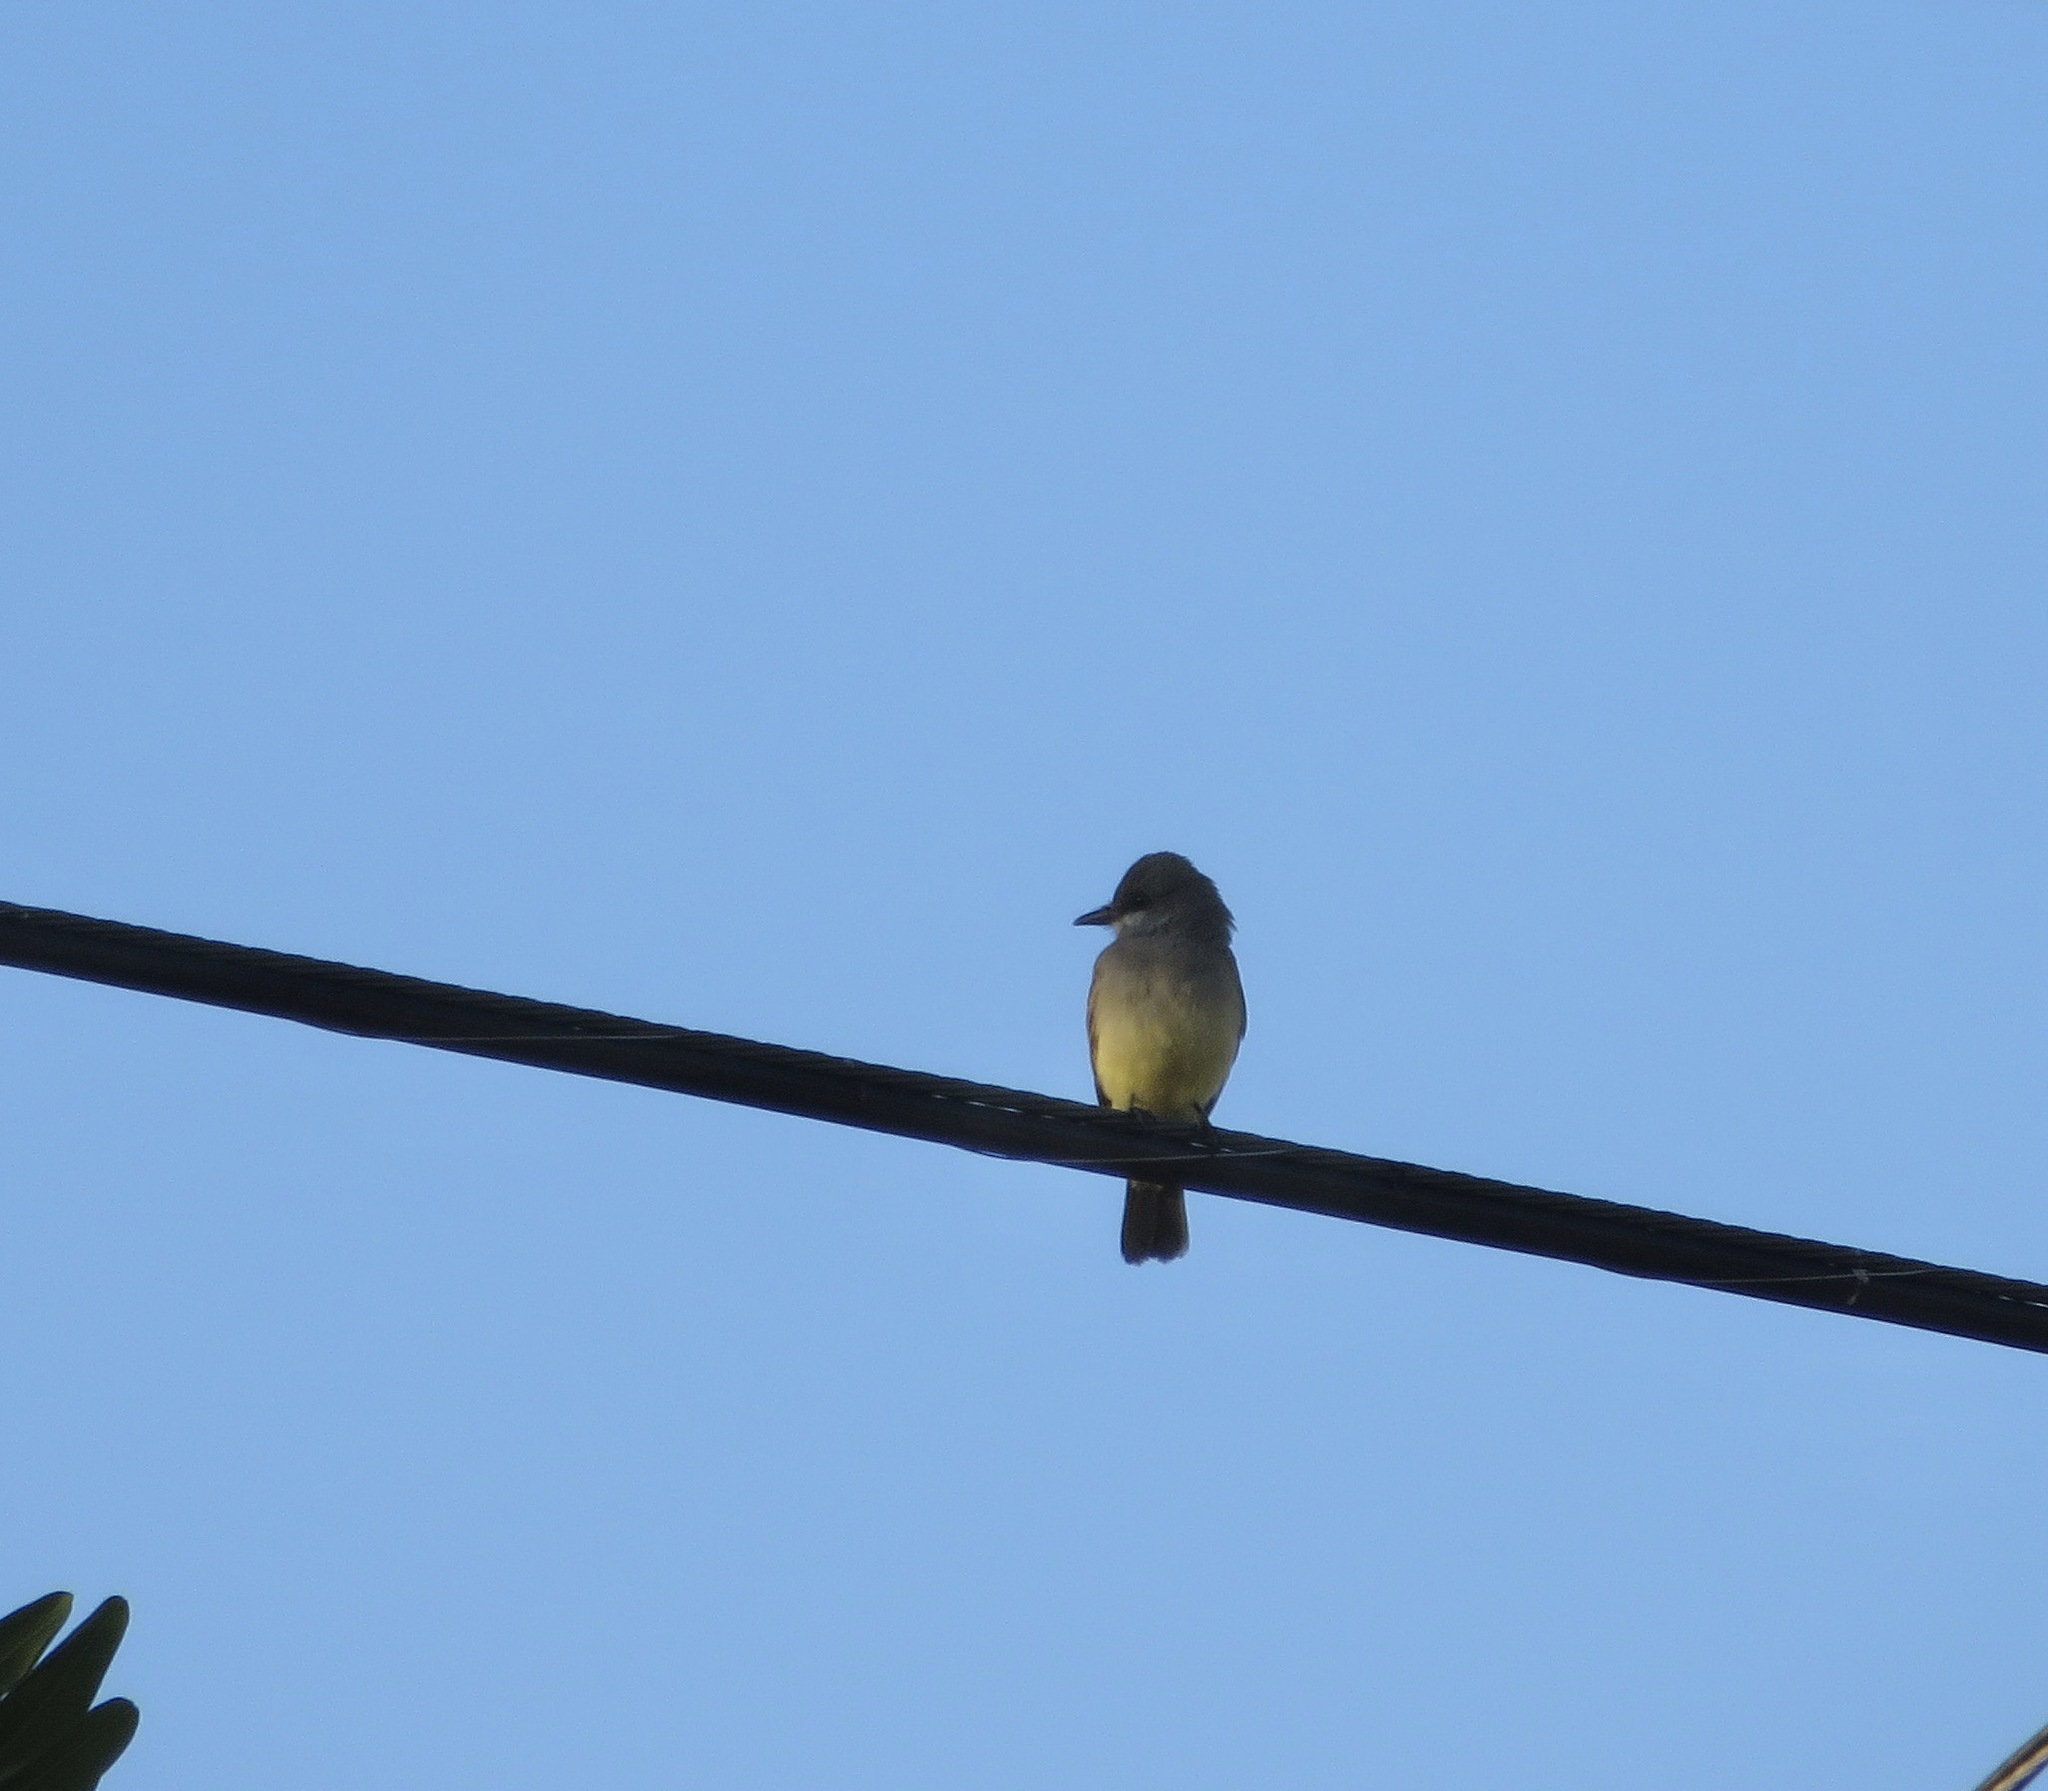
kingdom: Animalia
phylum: Chordata
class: Aves
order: Passeriformes
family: Tyrannidae
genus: Tyrannus
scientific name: Tyrannus vociferans
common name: Cassin's kingbird
